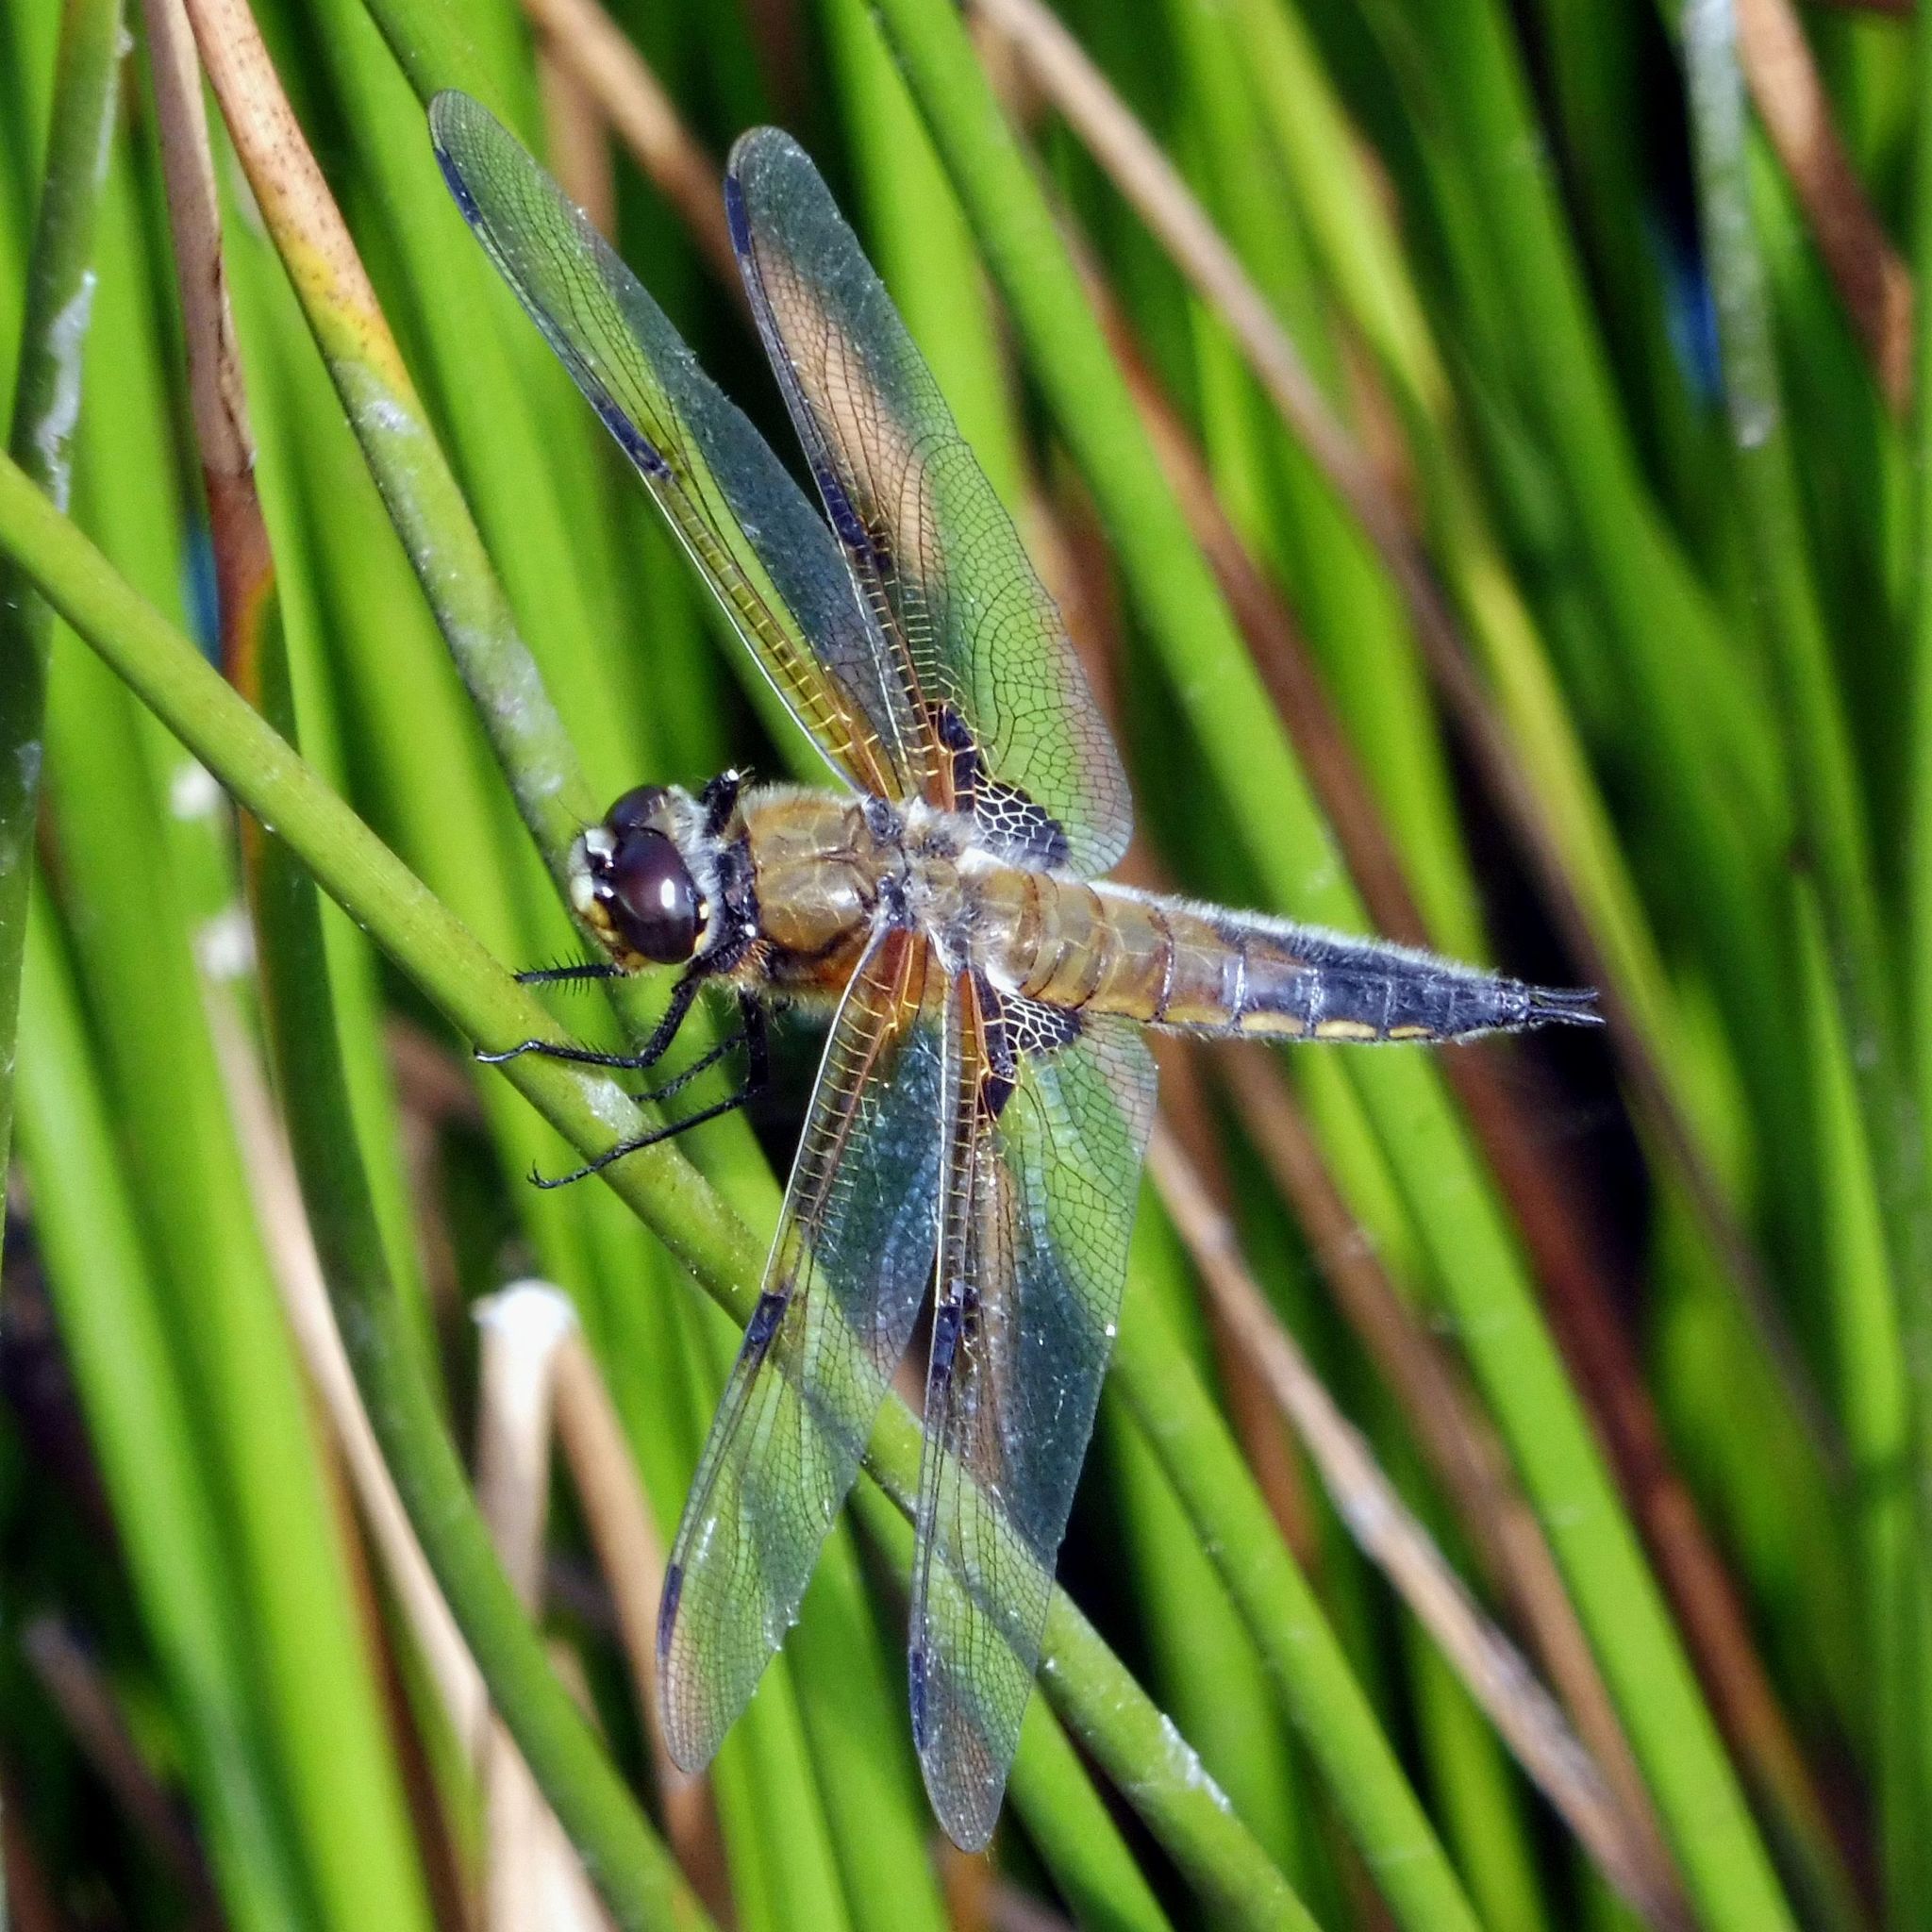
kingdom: Animalia
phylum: Arthropoda
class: Insecta
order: Odonata
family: Libellulidae
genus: Libellula
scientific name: Libellula quadrimaculata
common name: Four-spotted chaser
